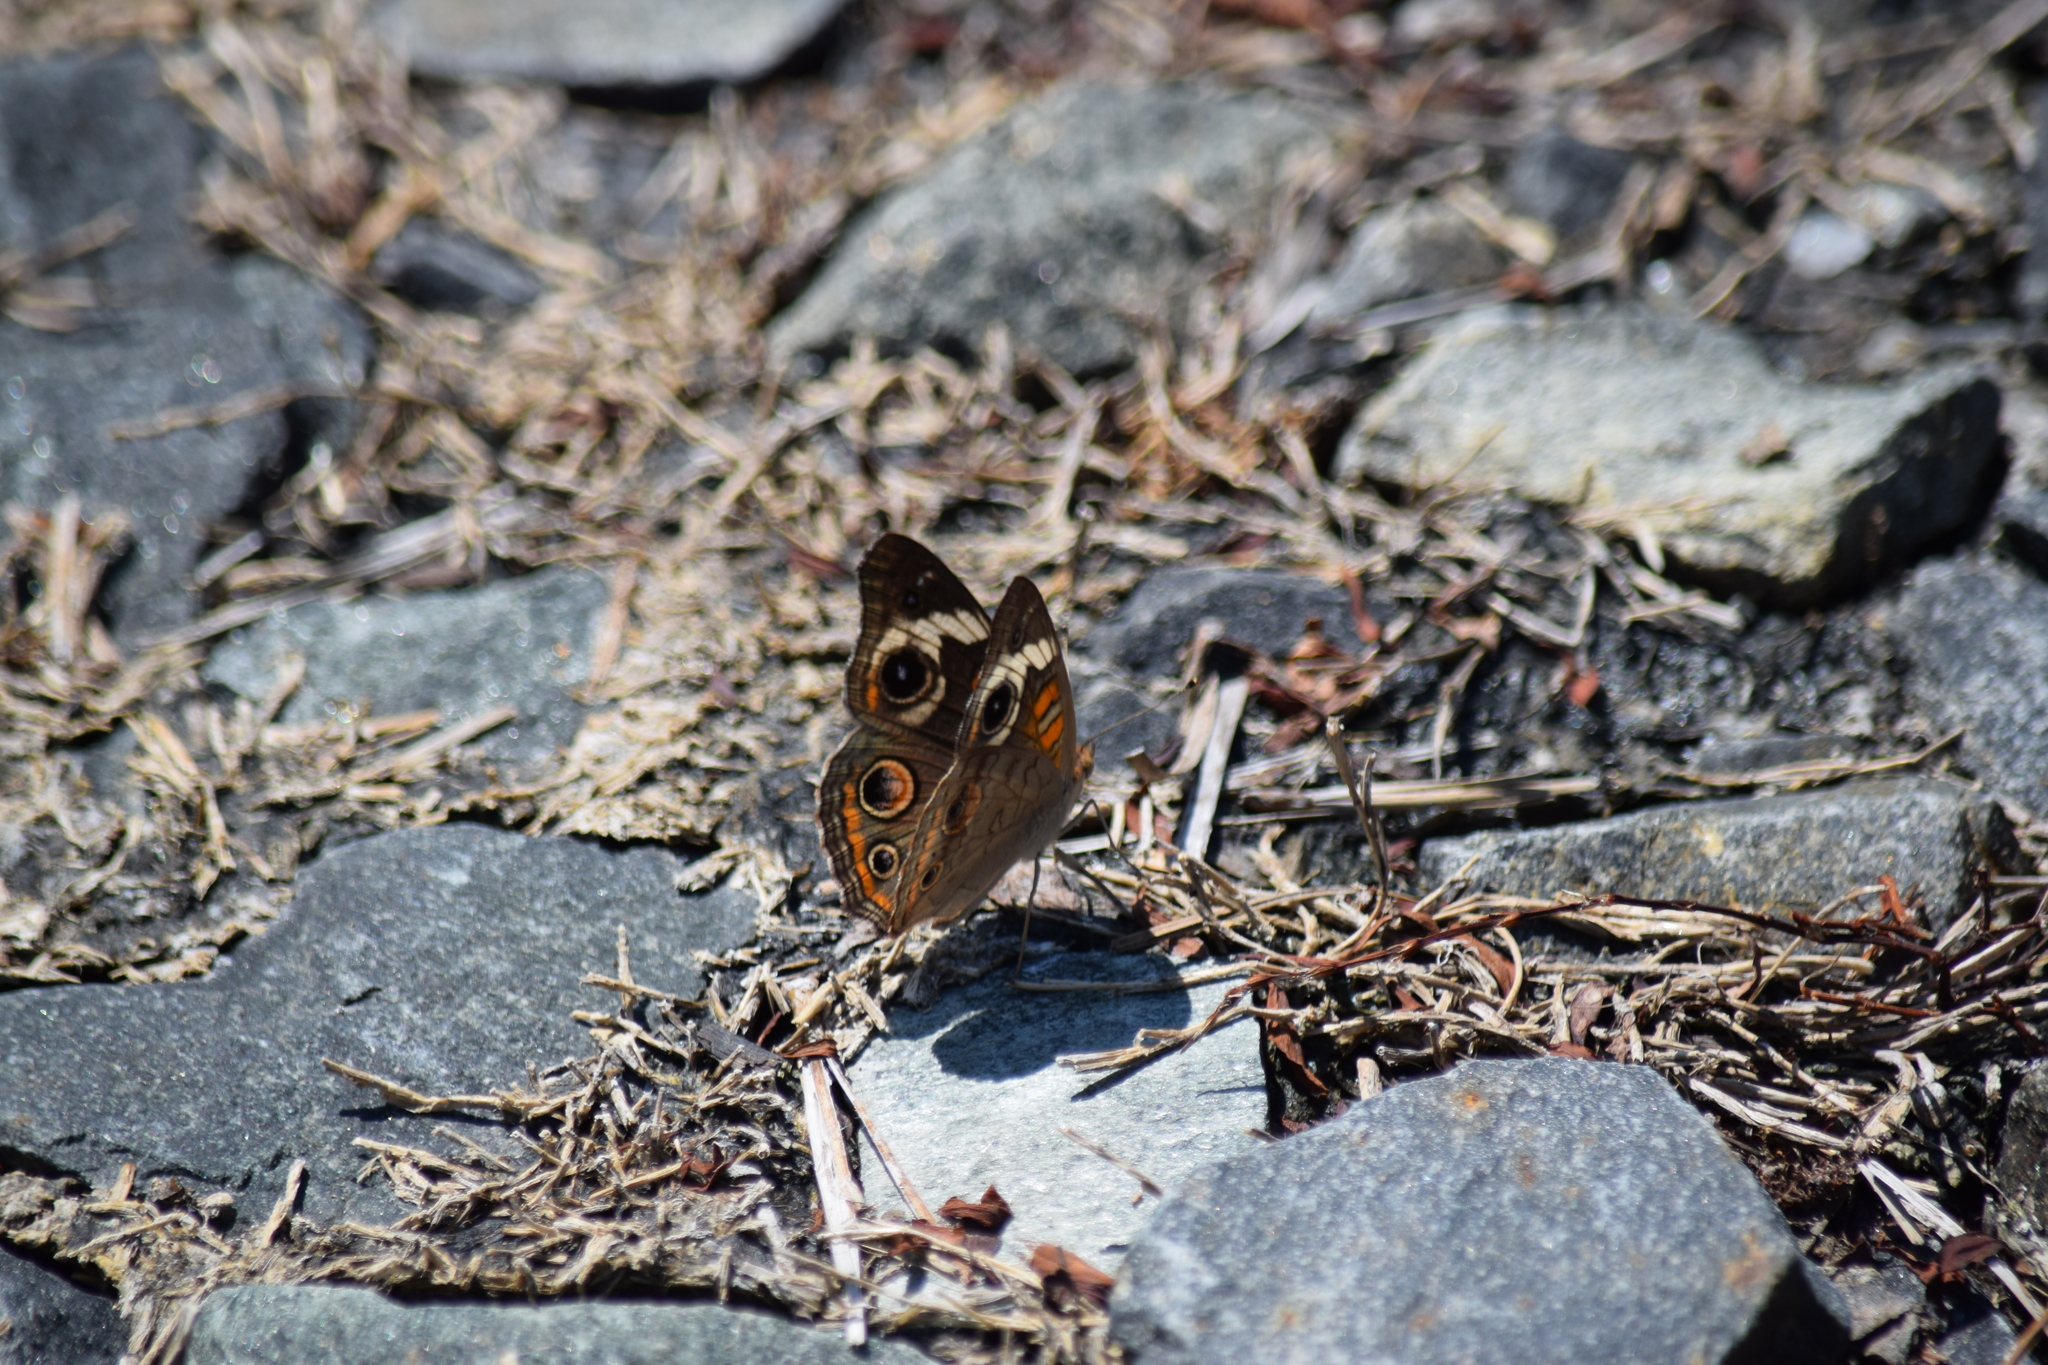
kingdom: Animalia
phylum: Arthropoda
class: Insecta
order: Lepidoptera
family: Nymphalidae
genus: Junonia
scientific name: Junonia coenia
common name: Common buckeye
